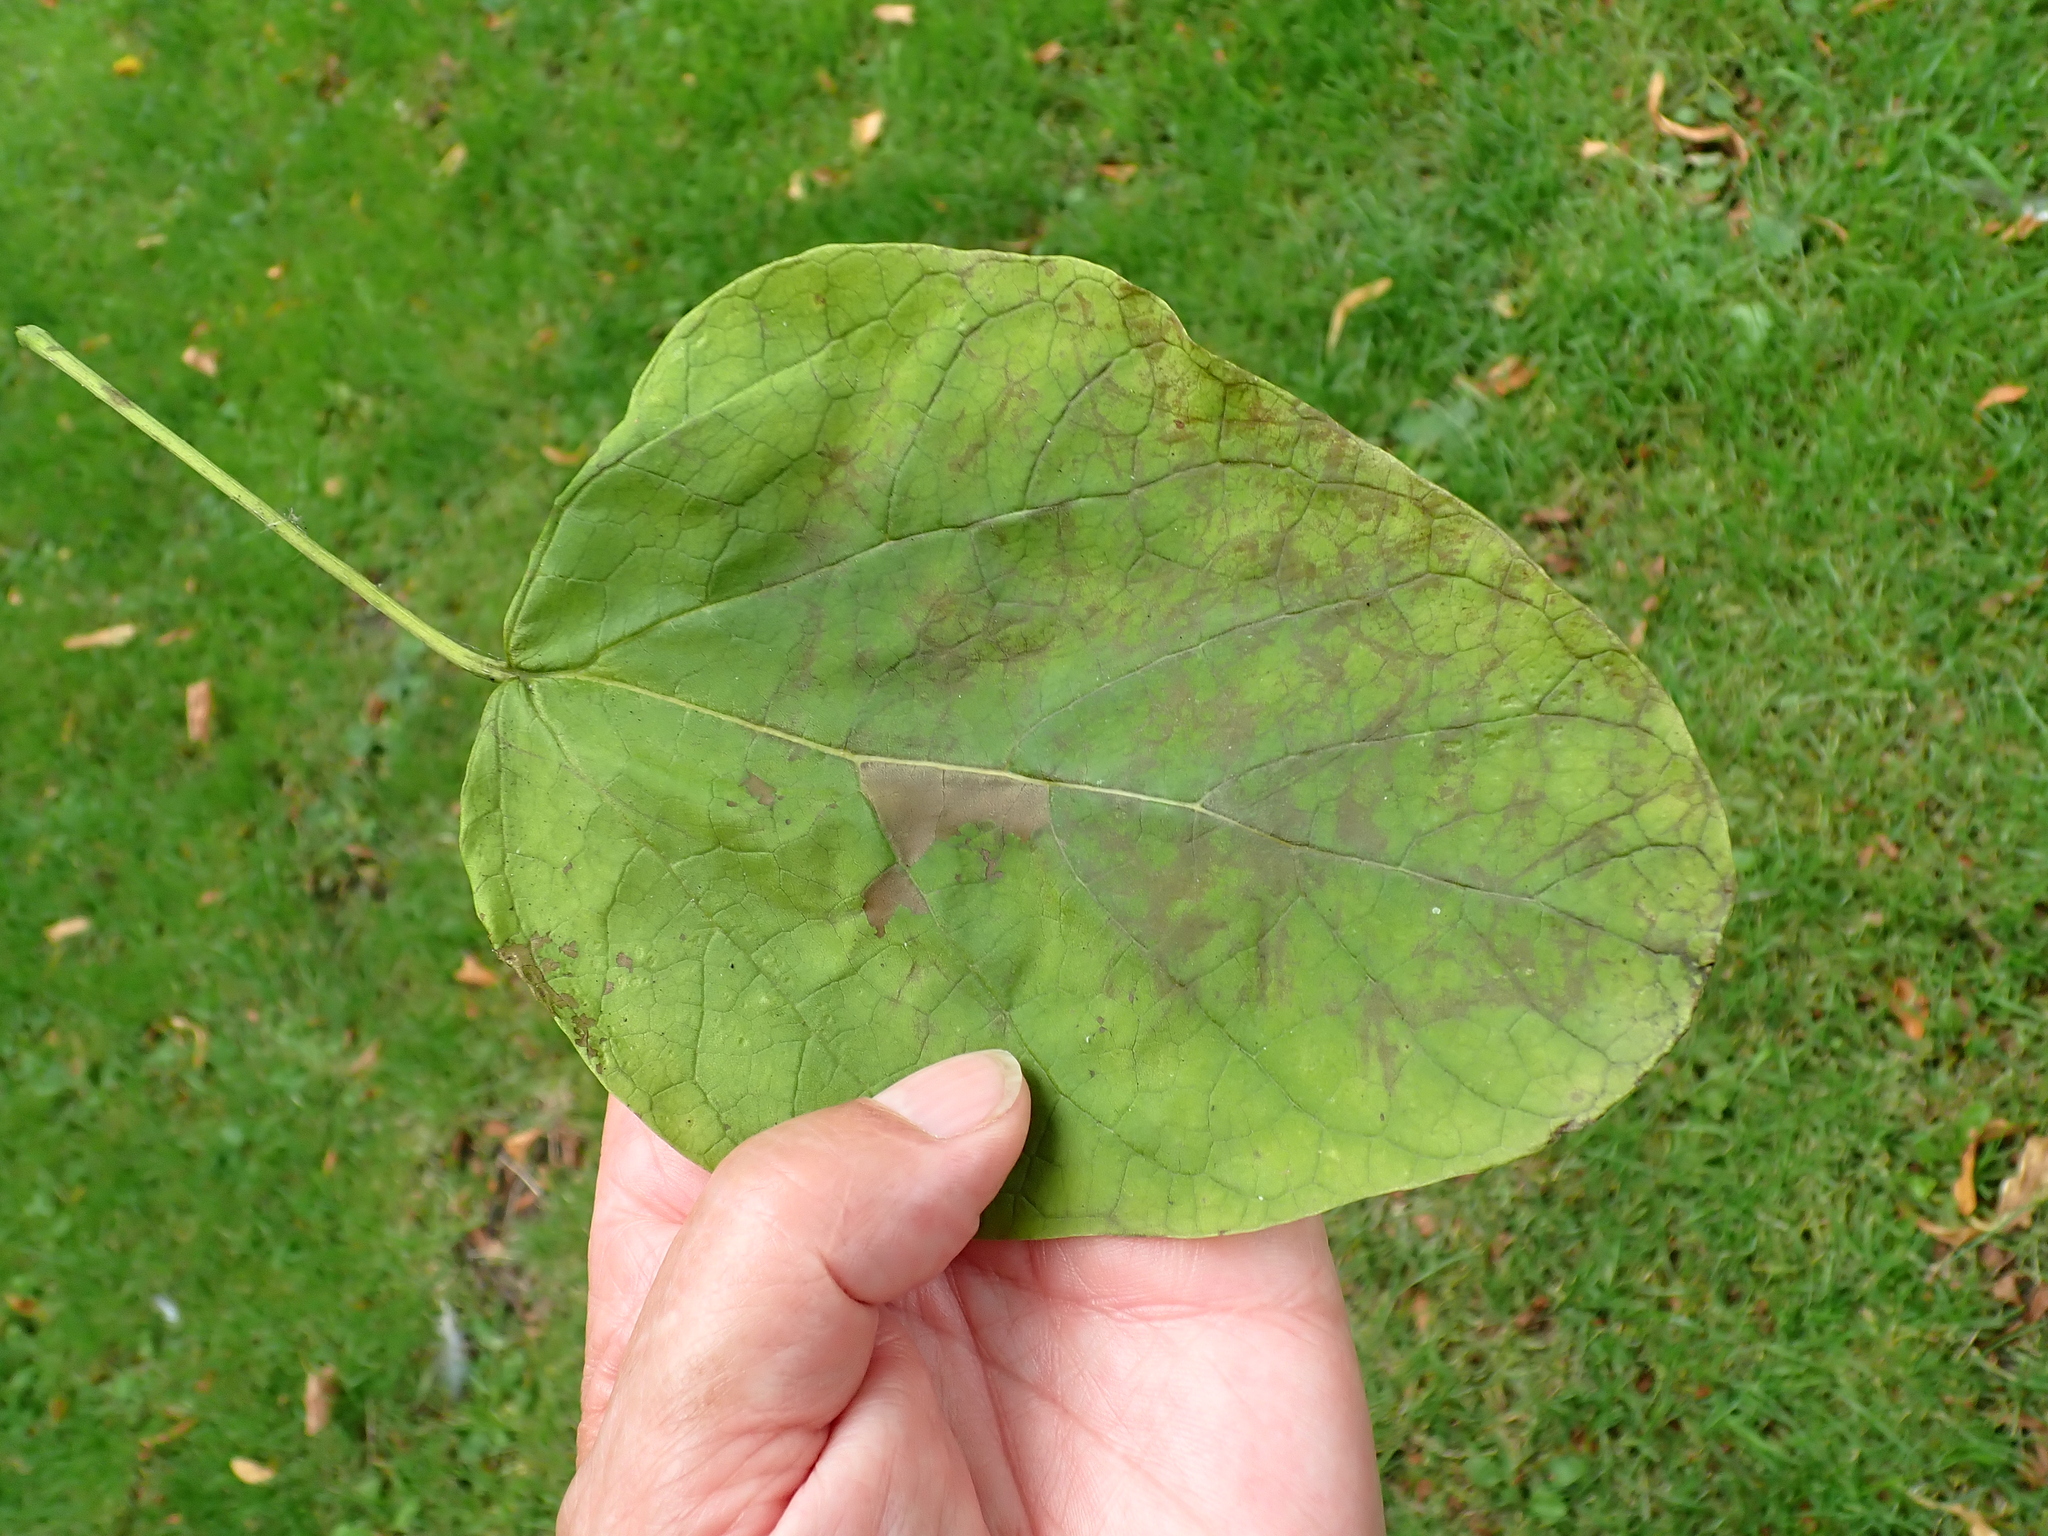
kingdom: Plantae
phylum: Tracheophyta
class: Magnoliopsida
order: Lamiales
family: Bignoniaceae
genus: Catalpa
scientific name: Catalpa bignonioides
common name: Southern catalpa
